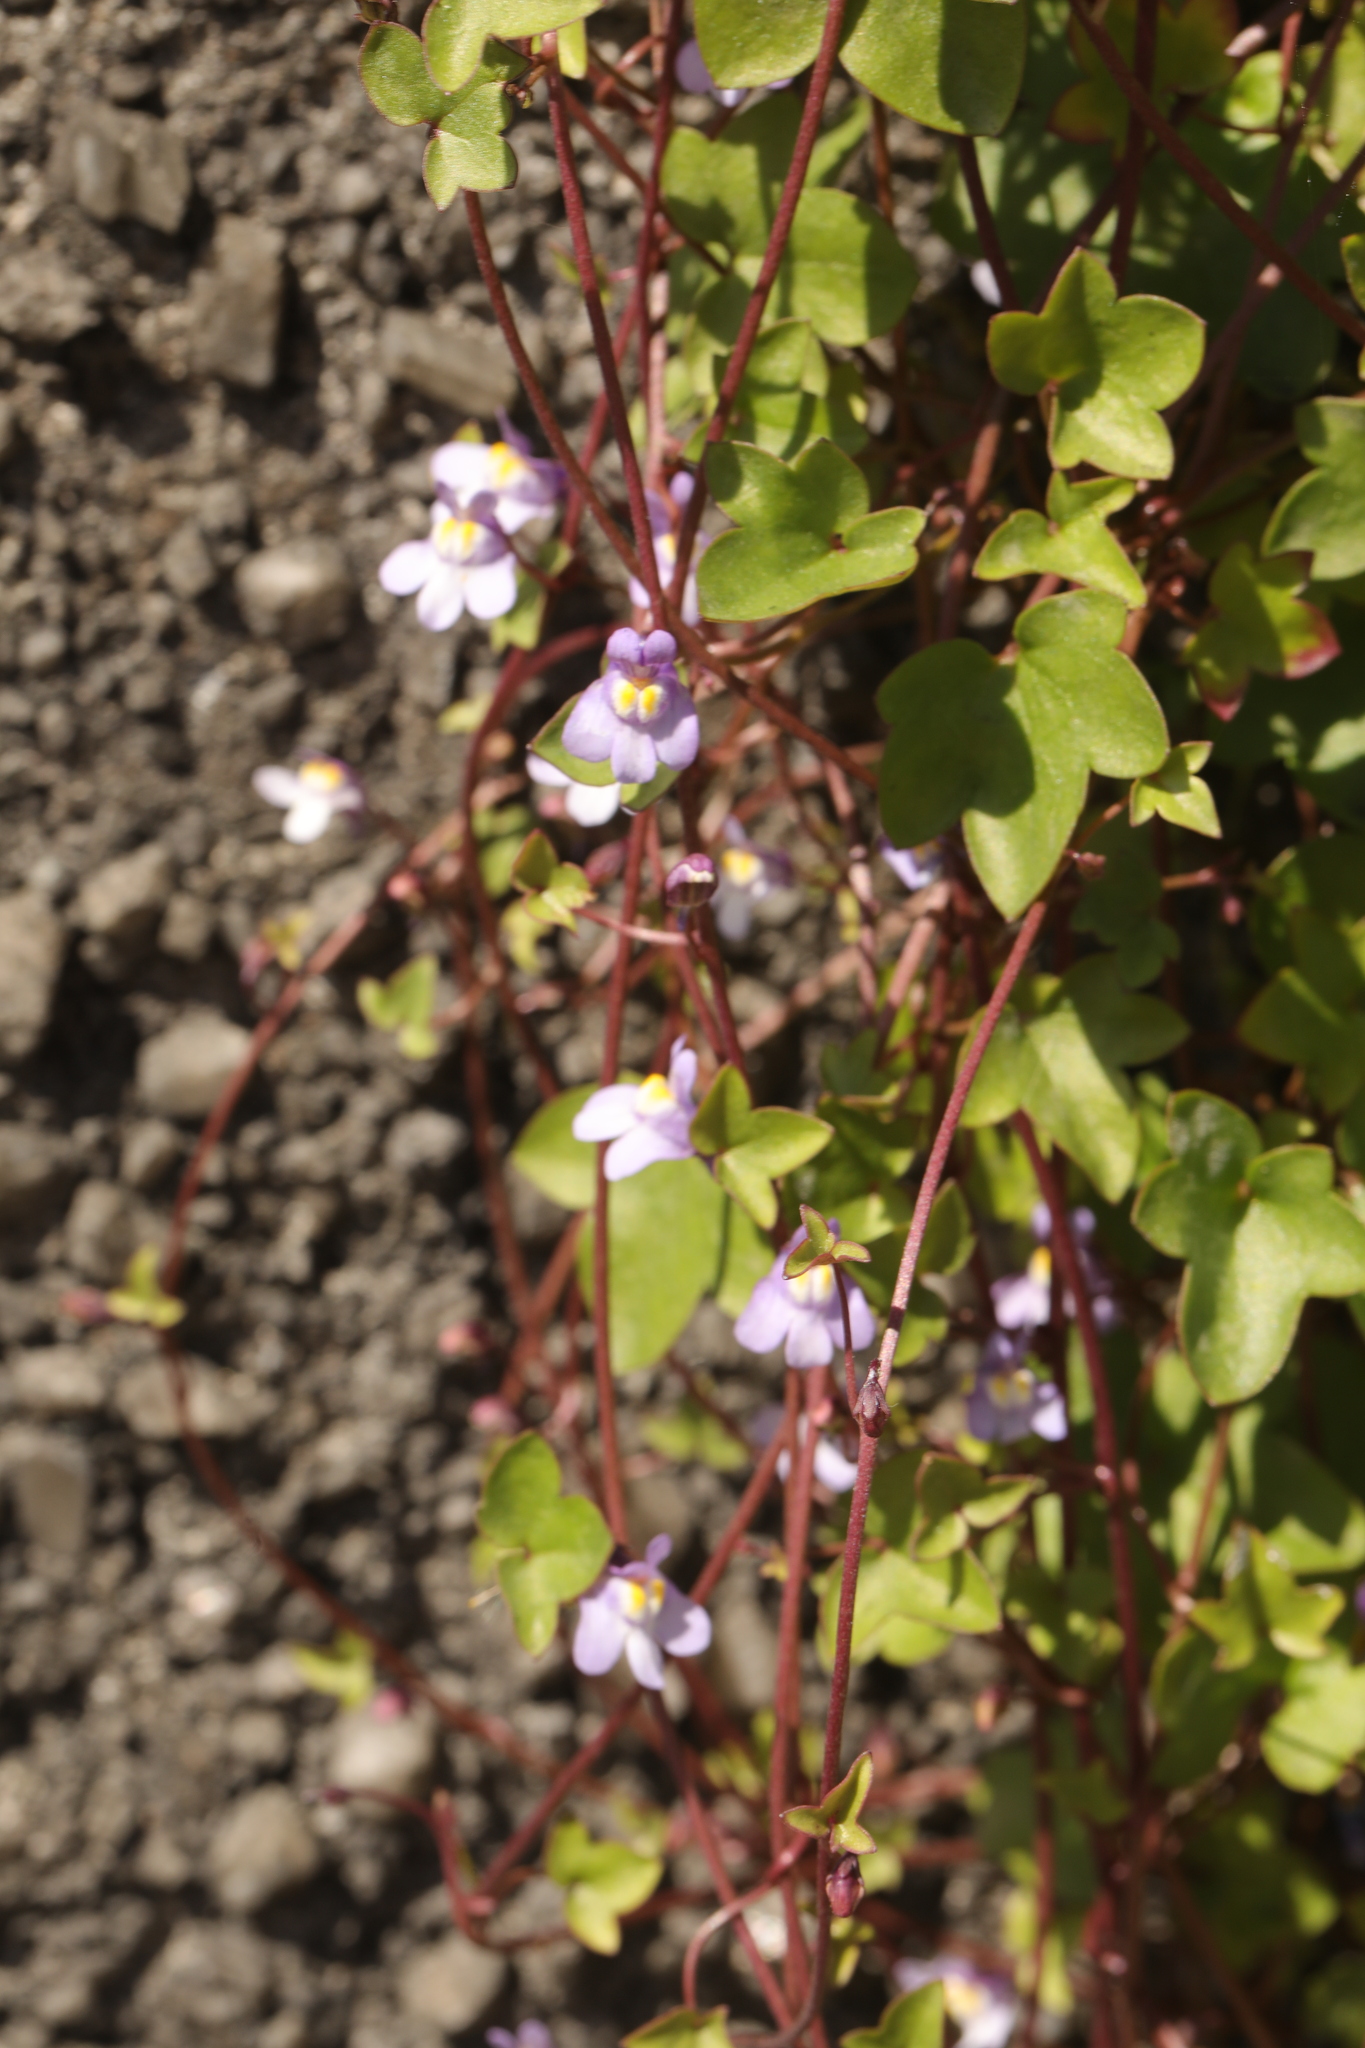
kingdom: Plantae
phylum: Tracheophyta
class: Magnoliopsida
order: Lamiales
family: Plantaginaceae
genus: Cymbalaria
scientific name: Cymbalaria muralis
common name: Ivy-leaved toadflax
